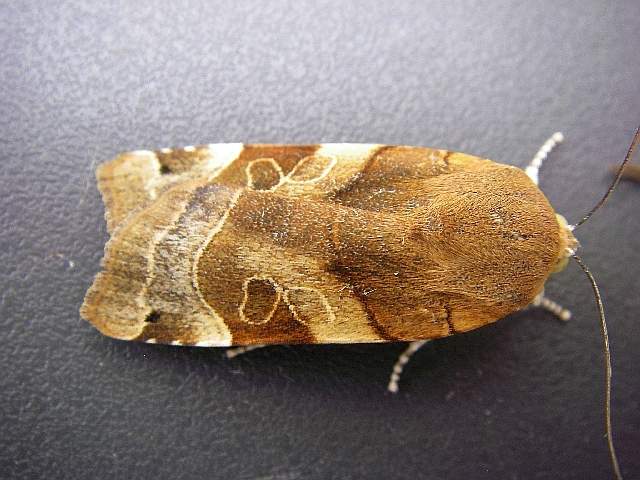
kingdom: Animalia
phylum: Arthropoda
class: Insecta
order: Lepidoptera
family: Noctuidae
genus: Noctua
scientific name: Noctua fimbriata
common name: Broad-bordered yellow underwing
